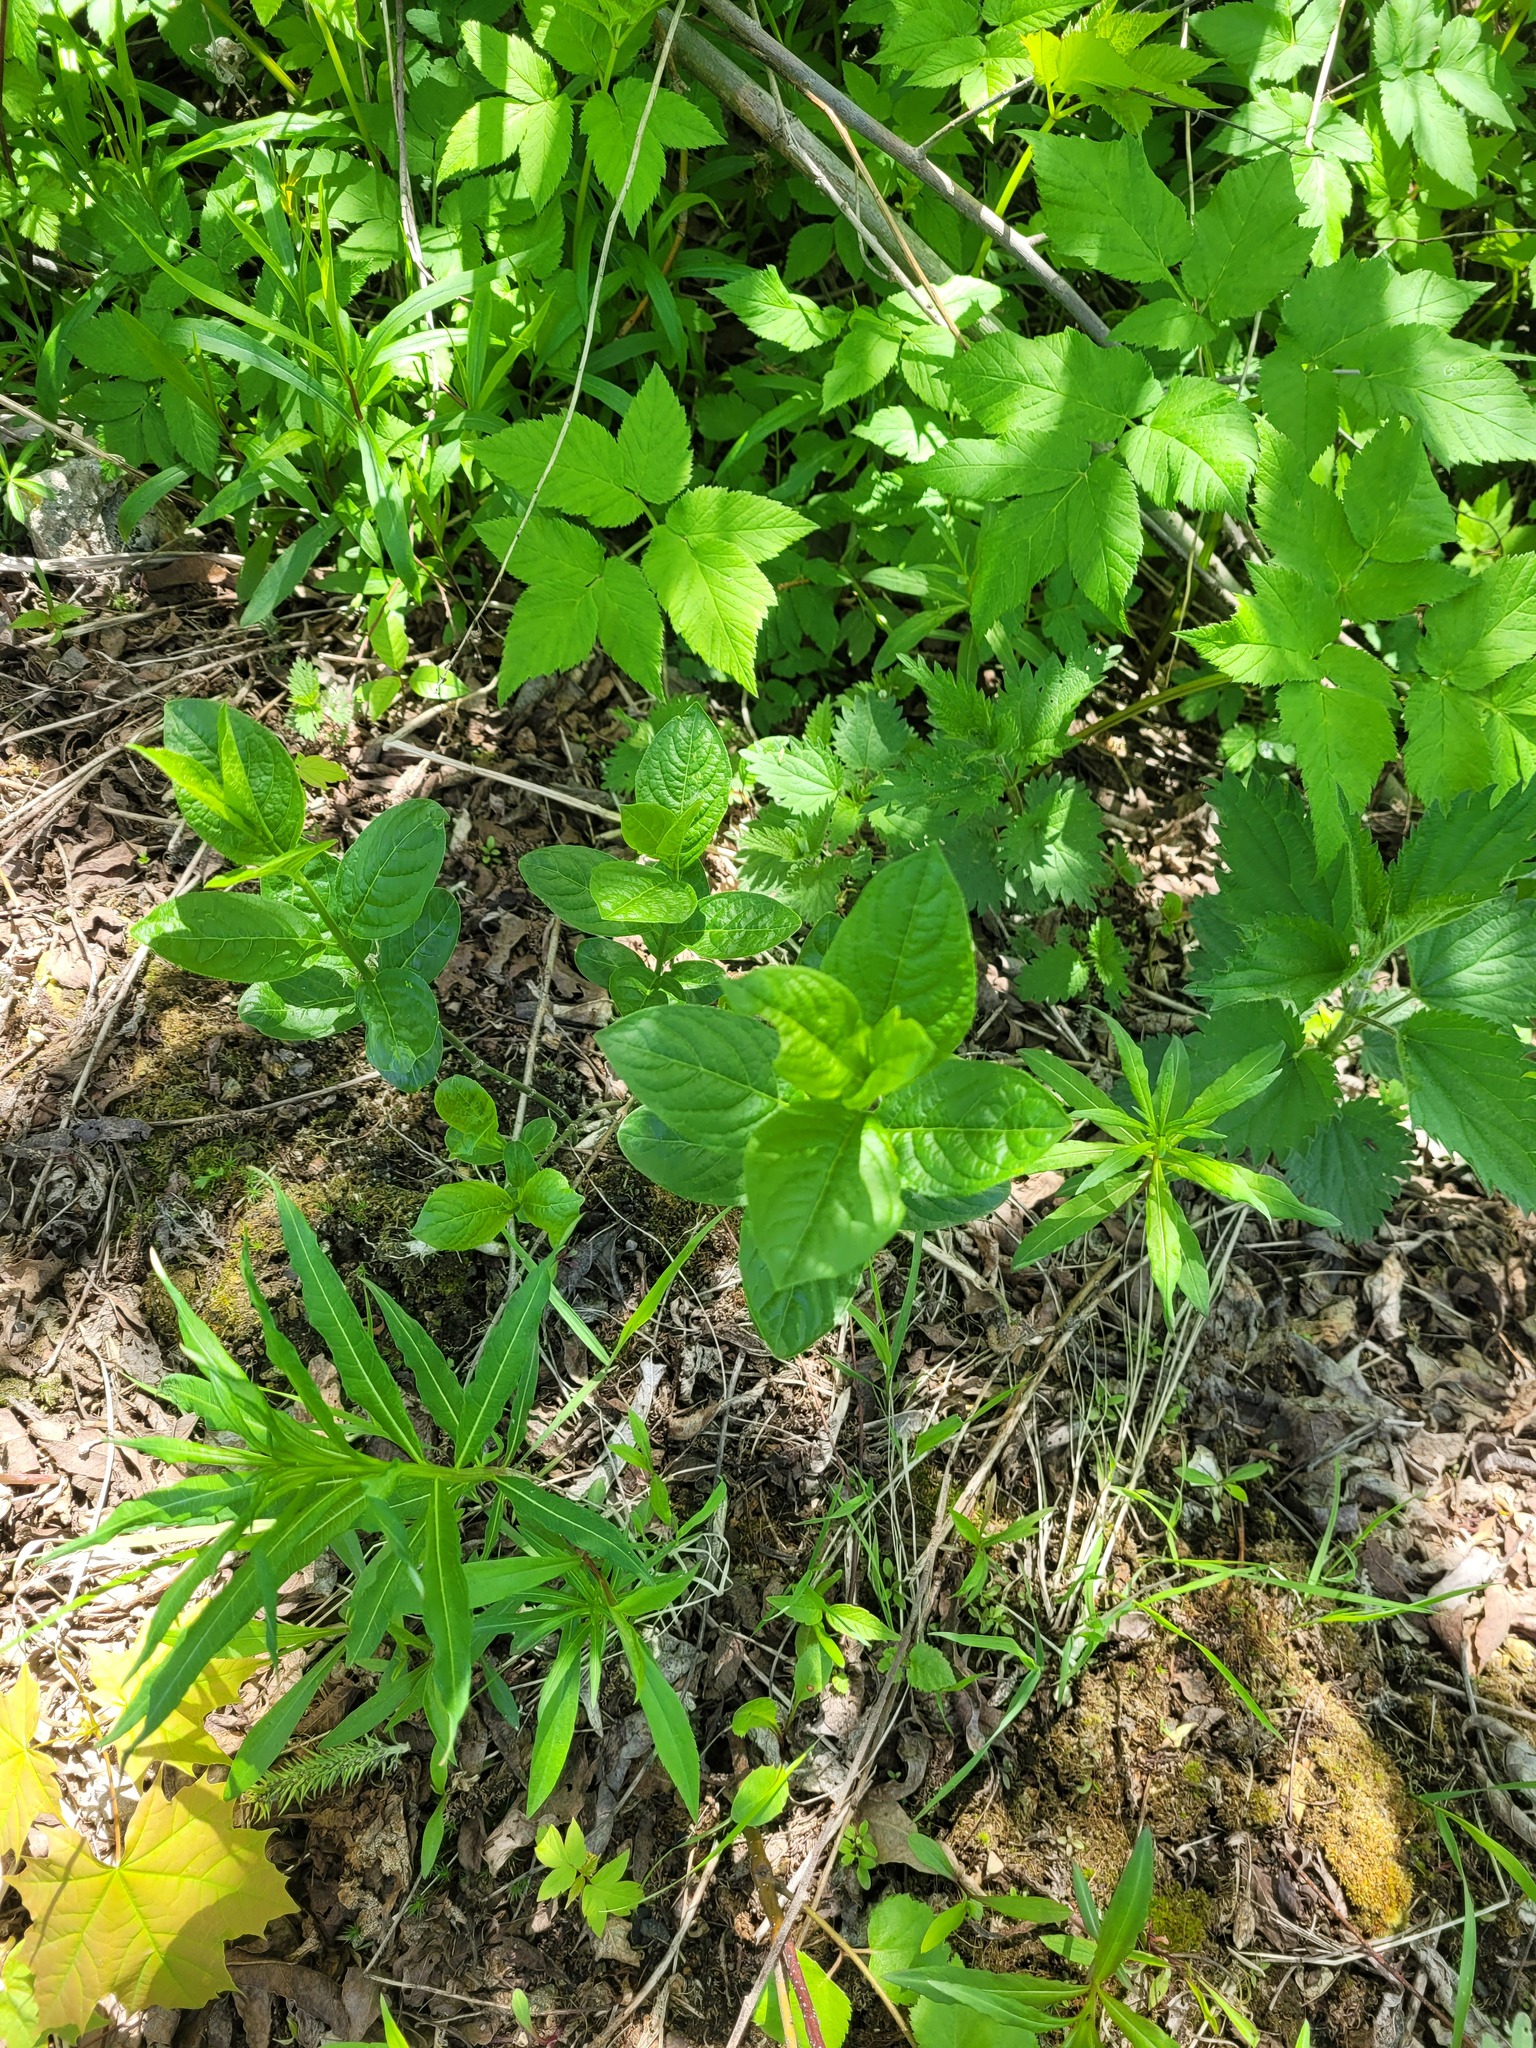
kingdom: Plantae
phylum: Tracheophyta
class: Magnoliopsida
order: Celastrales
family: Celastraceae
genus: Euonymus
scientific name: Euonymus europaeus
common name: Spindle
